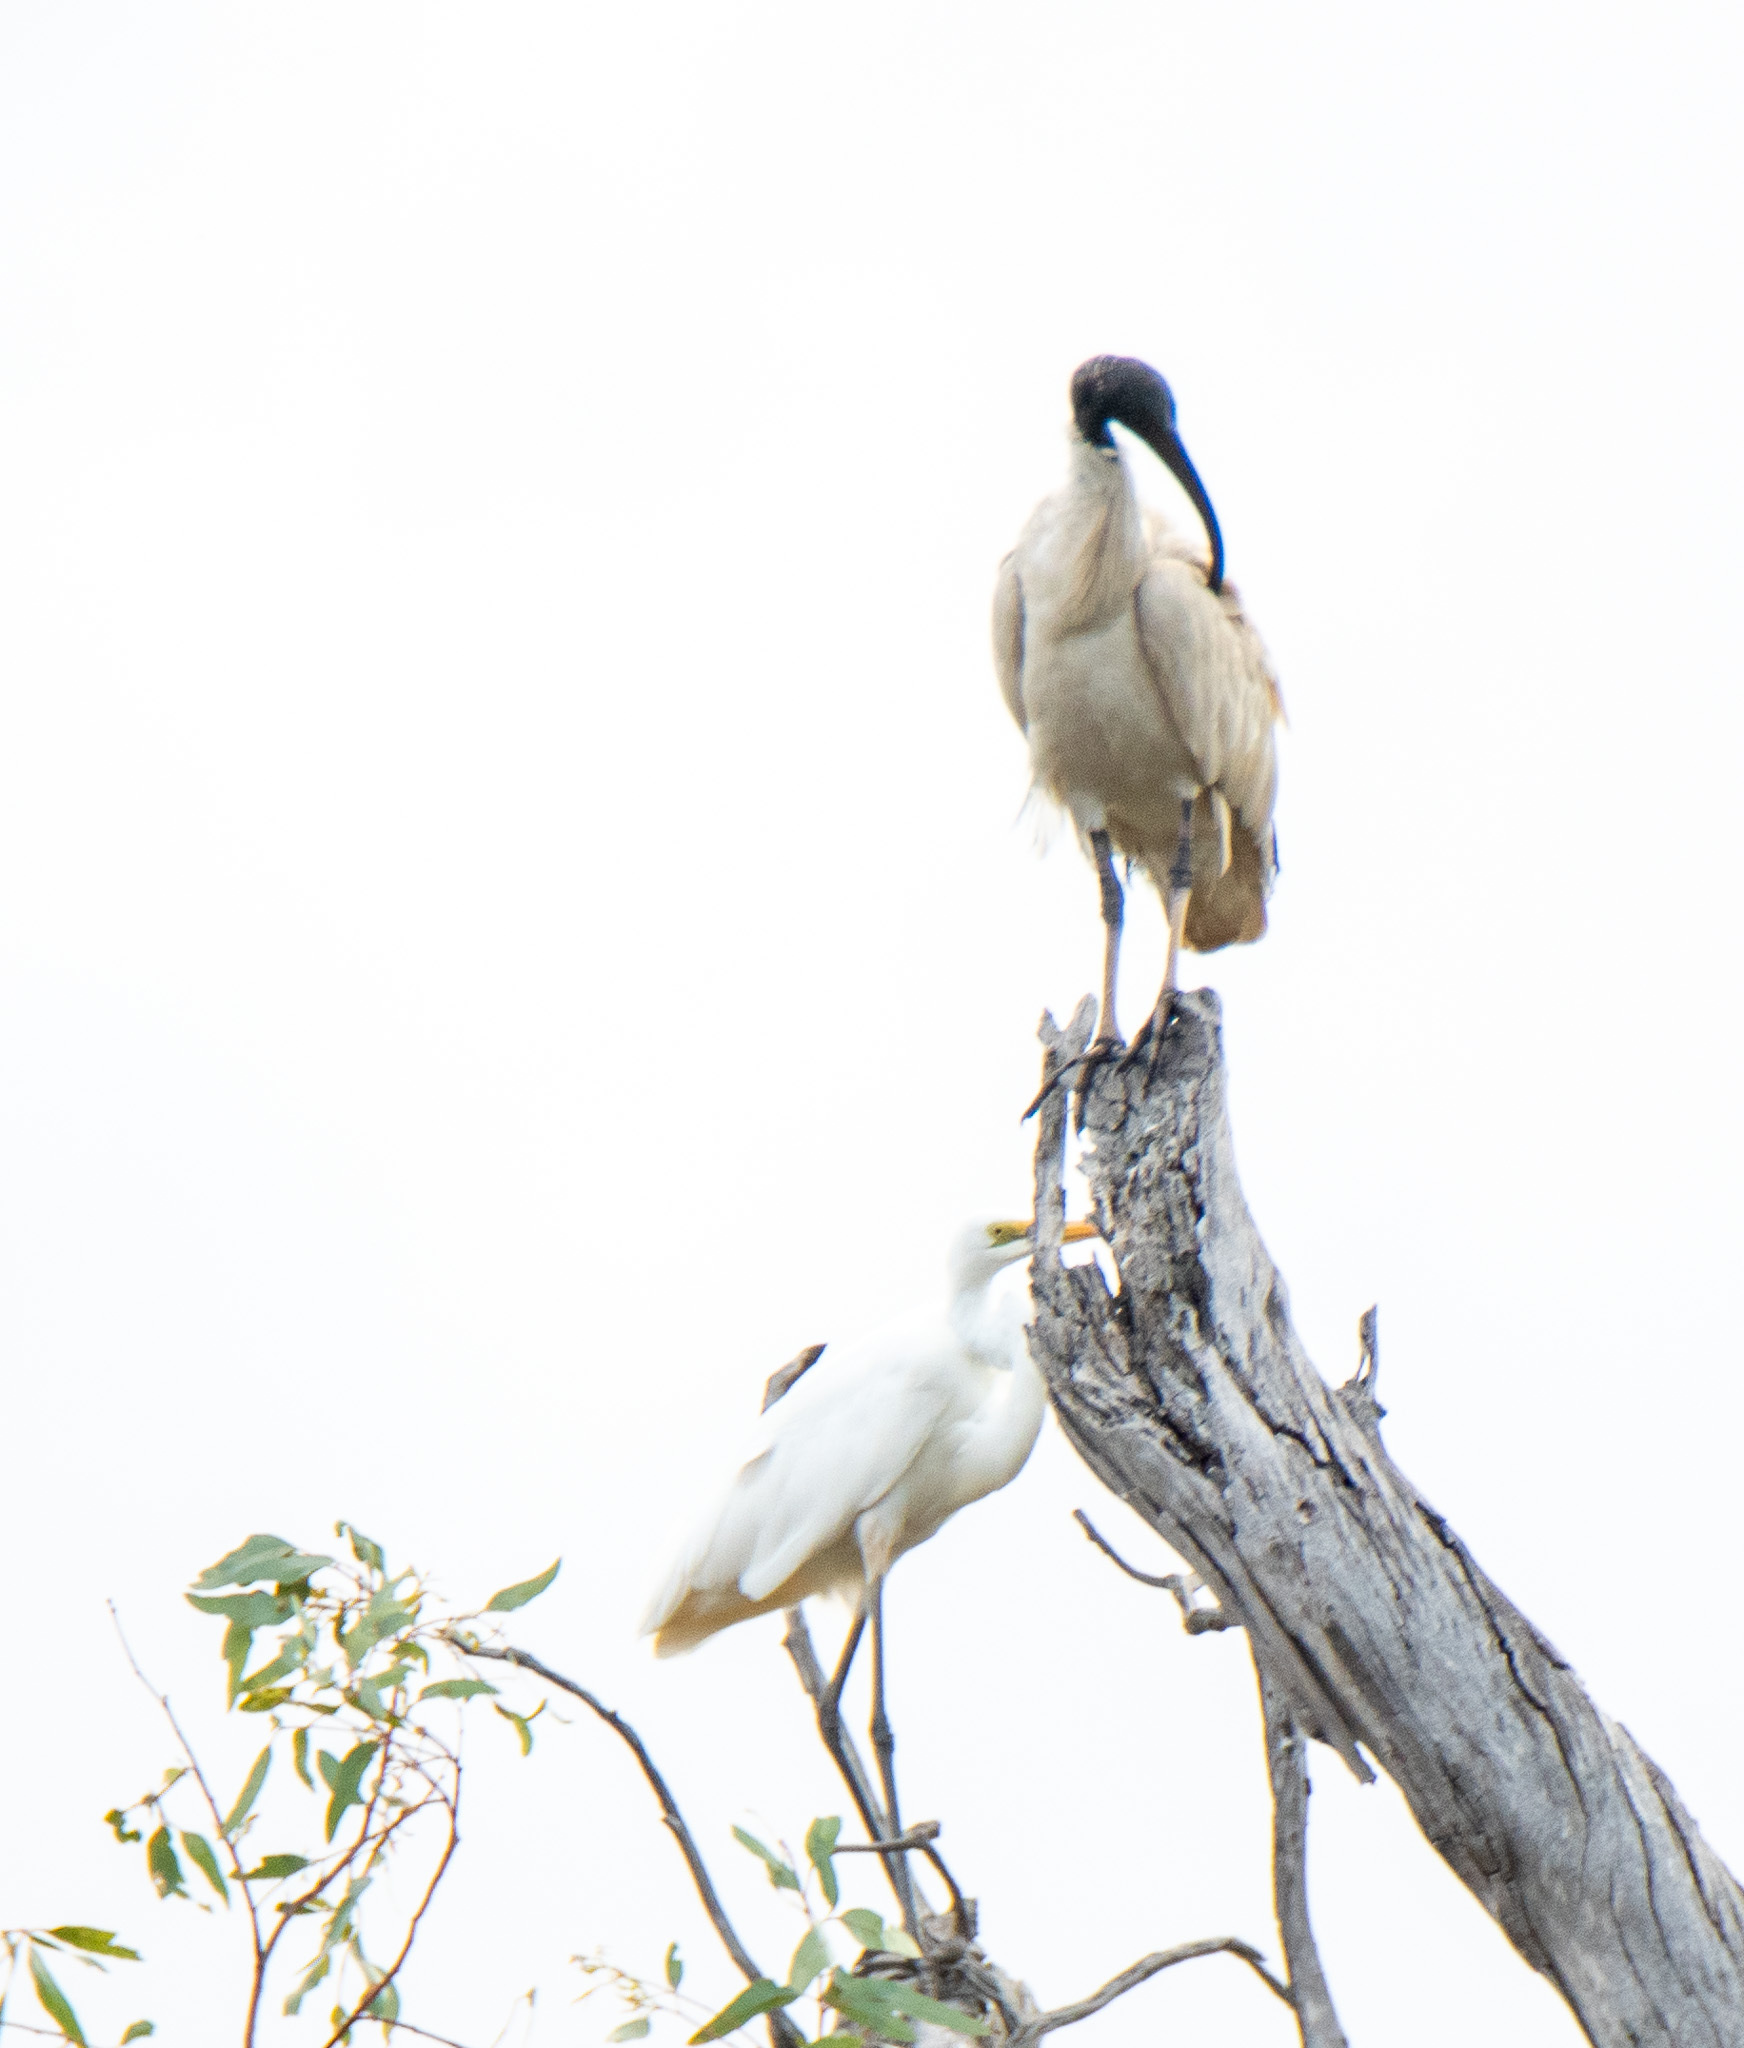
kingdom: Animalia
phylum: Chordata
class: Aves
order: Pelecaniformes
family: Ardeidae
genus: Ardea
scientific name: Ardea alba
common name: Great egret
